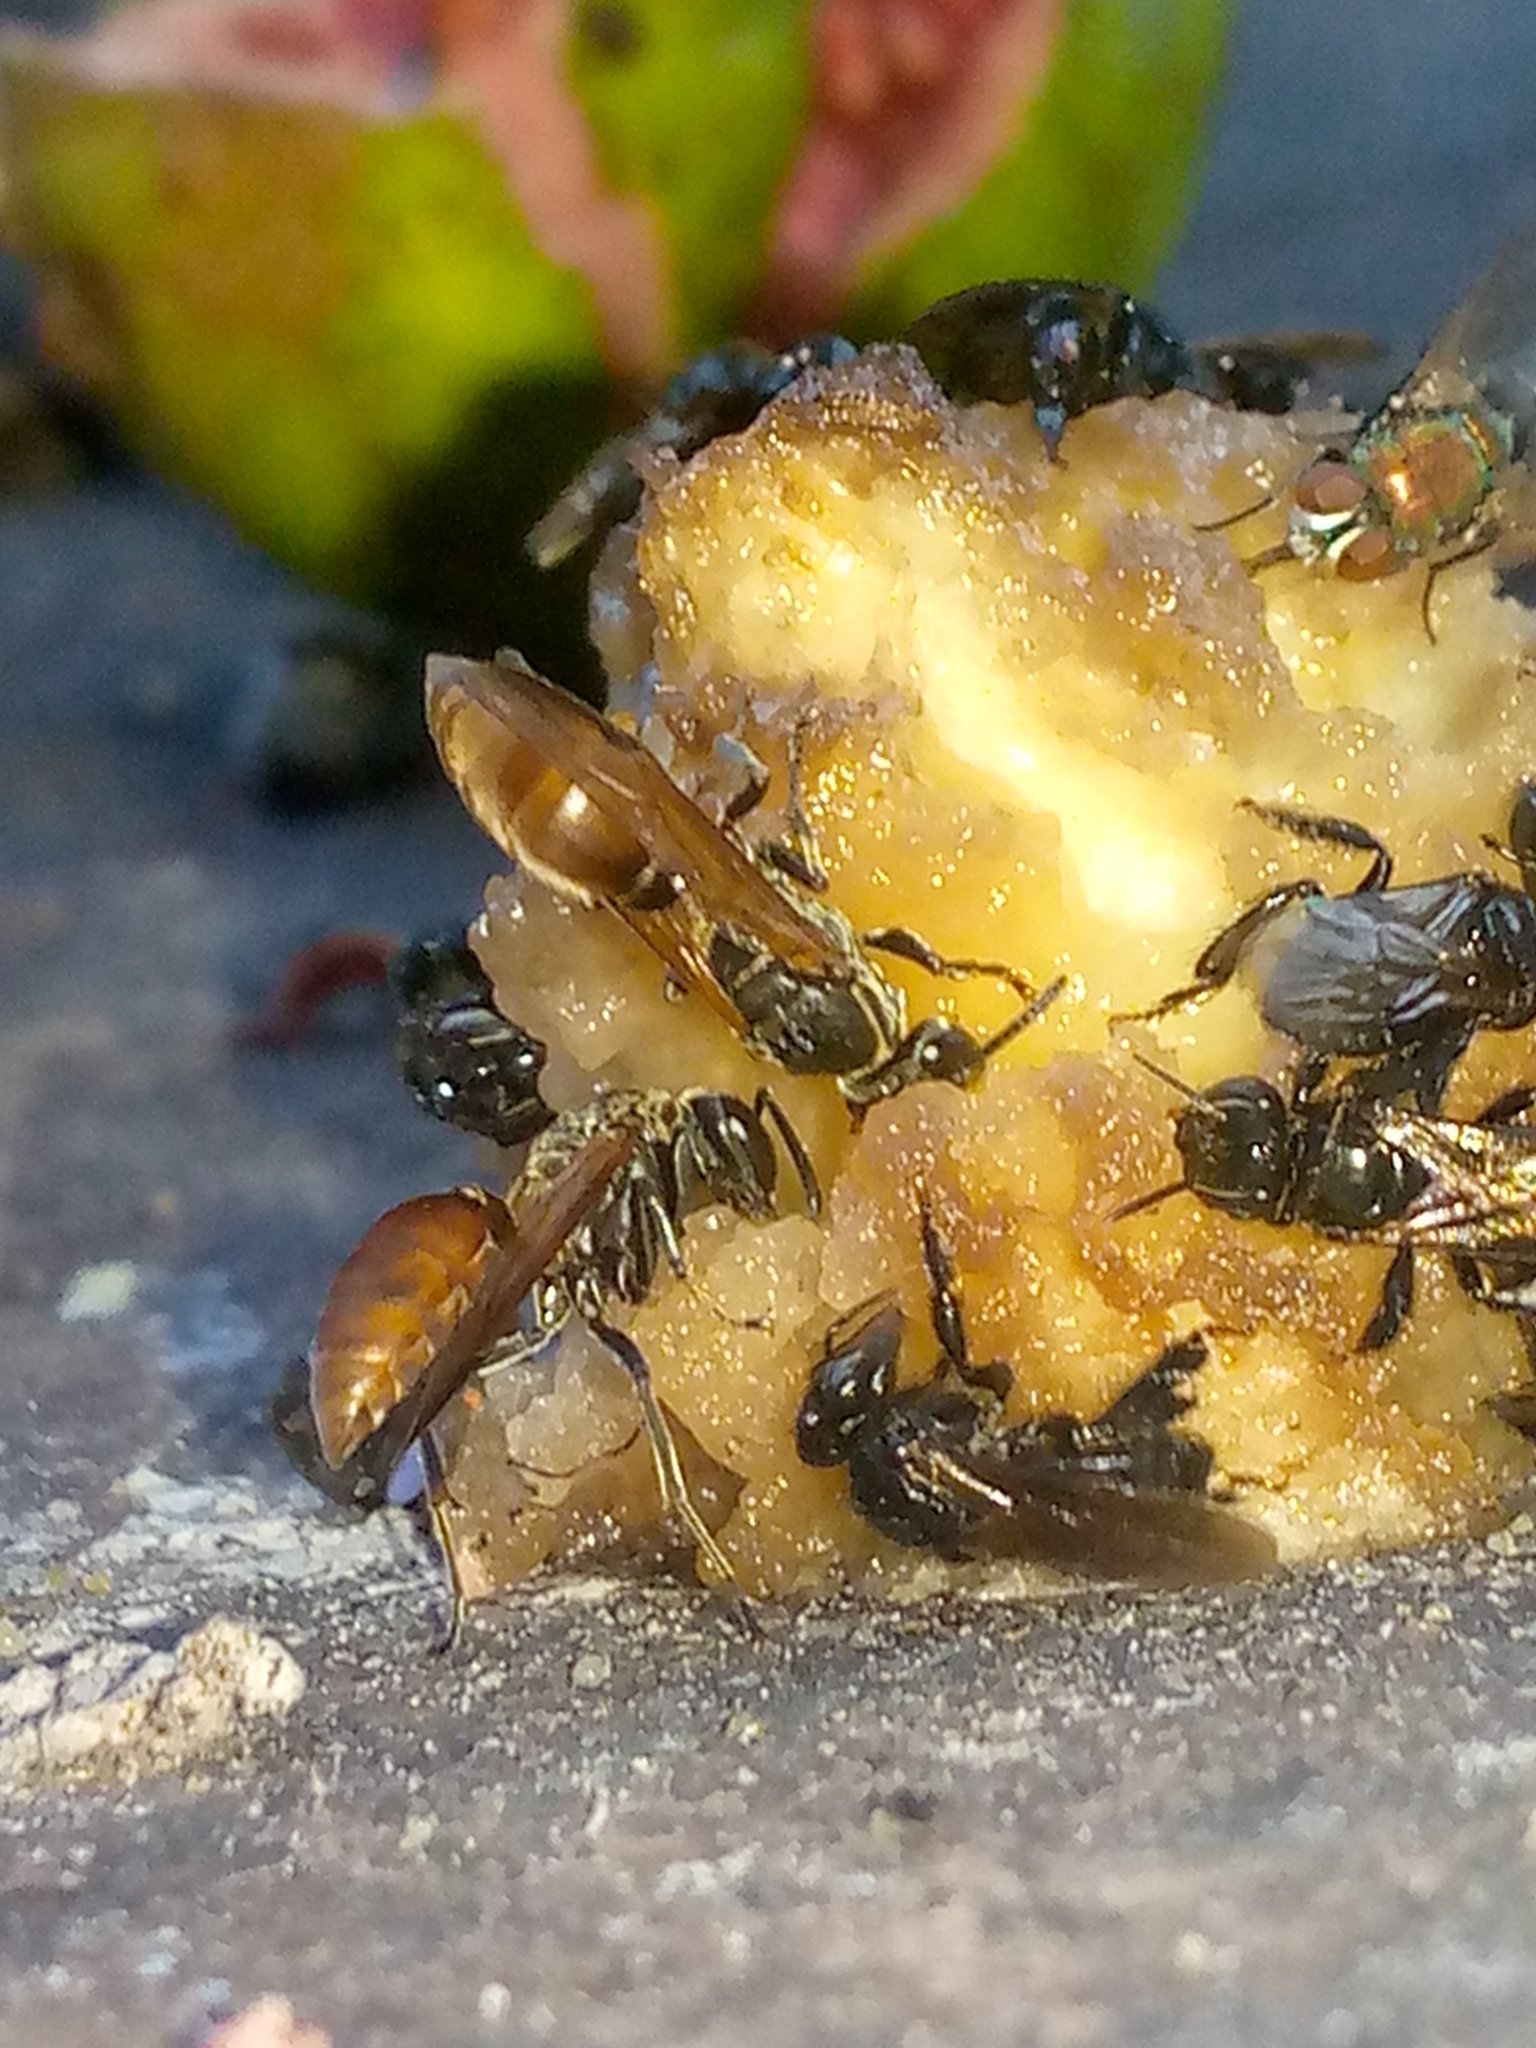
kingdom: Animalia
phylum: Arthropoda
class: Insecta
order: Hymenoptera
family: Eumenidae
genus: Polybia
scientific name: Polybia punctata
